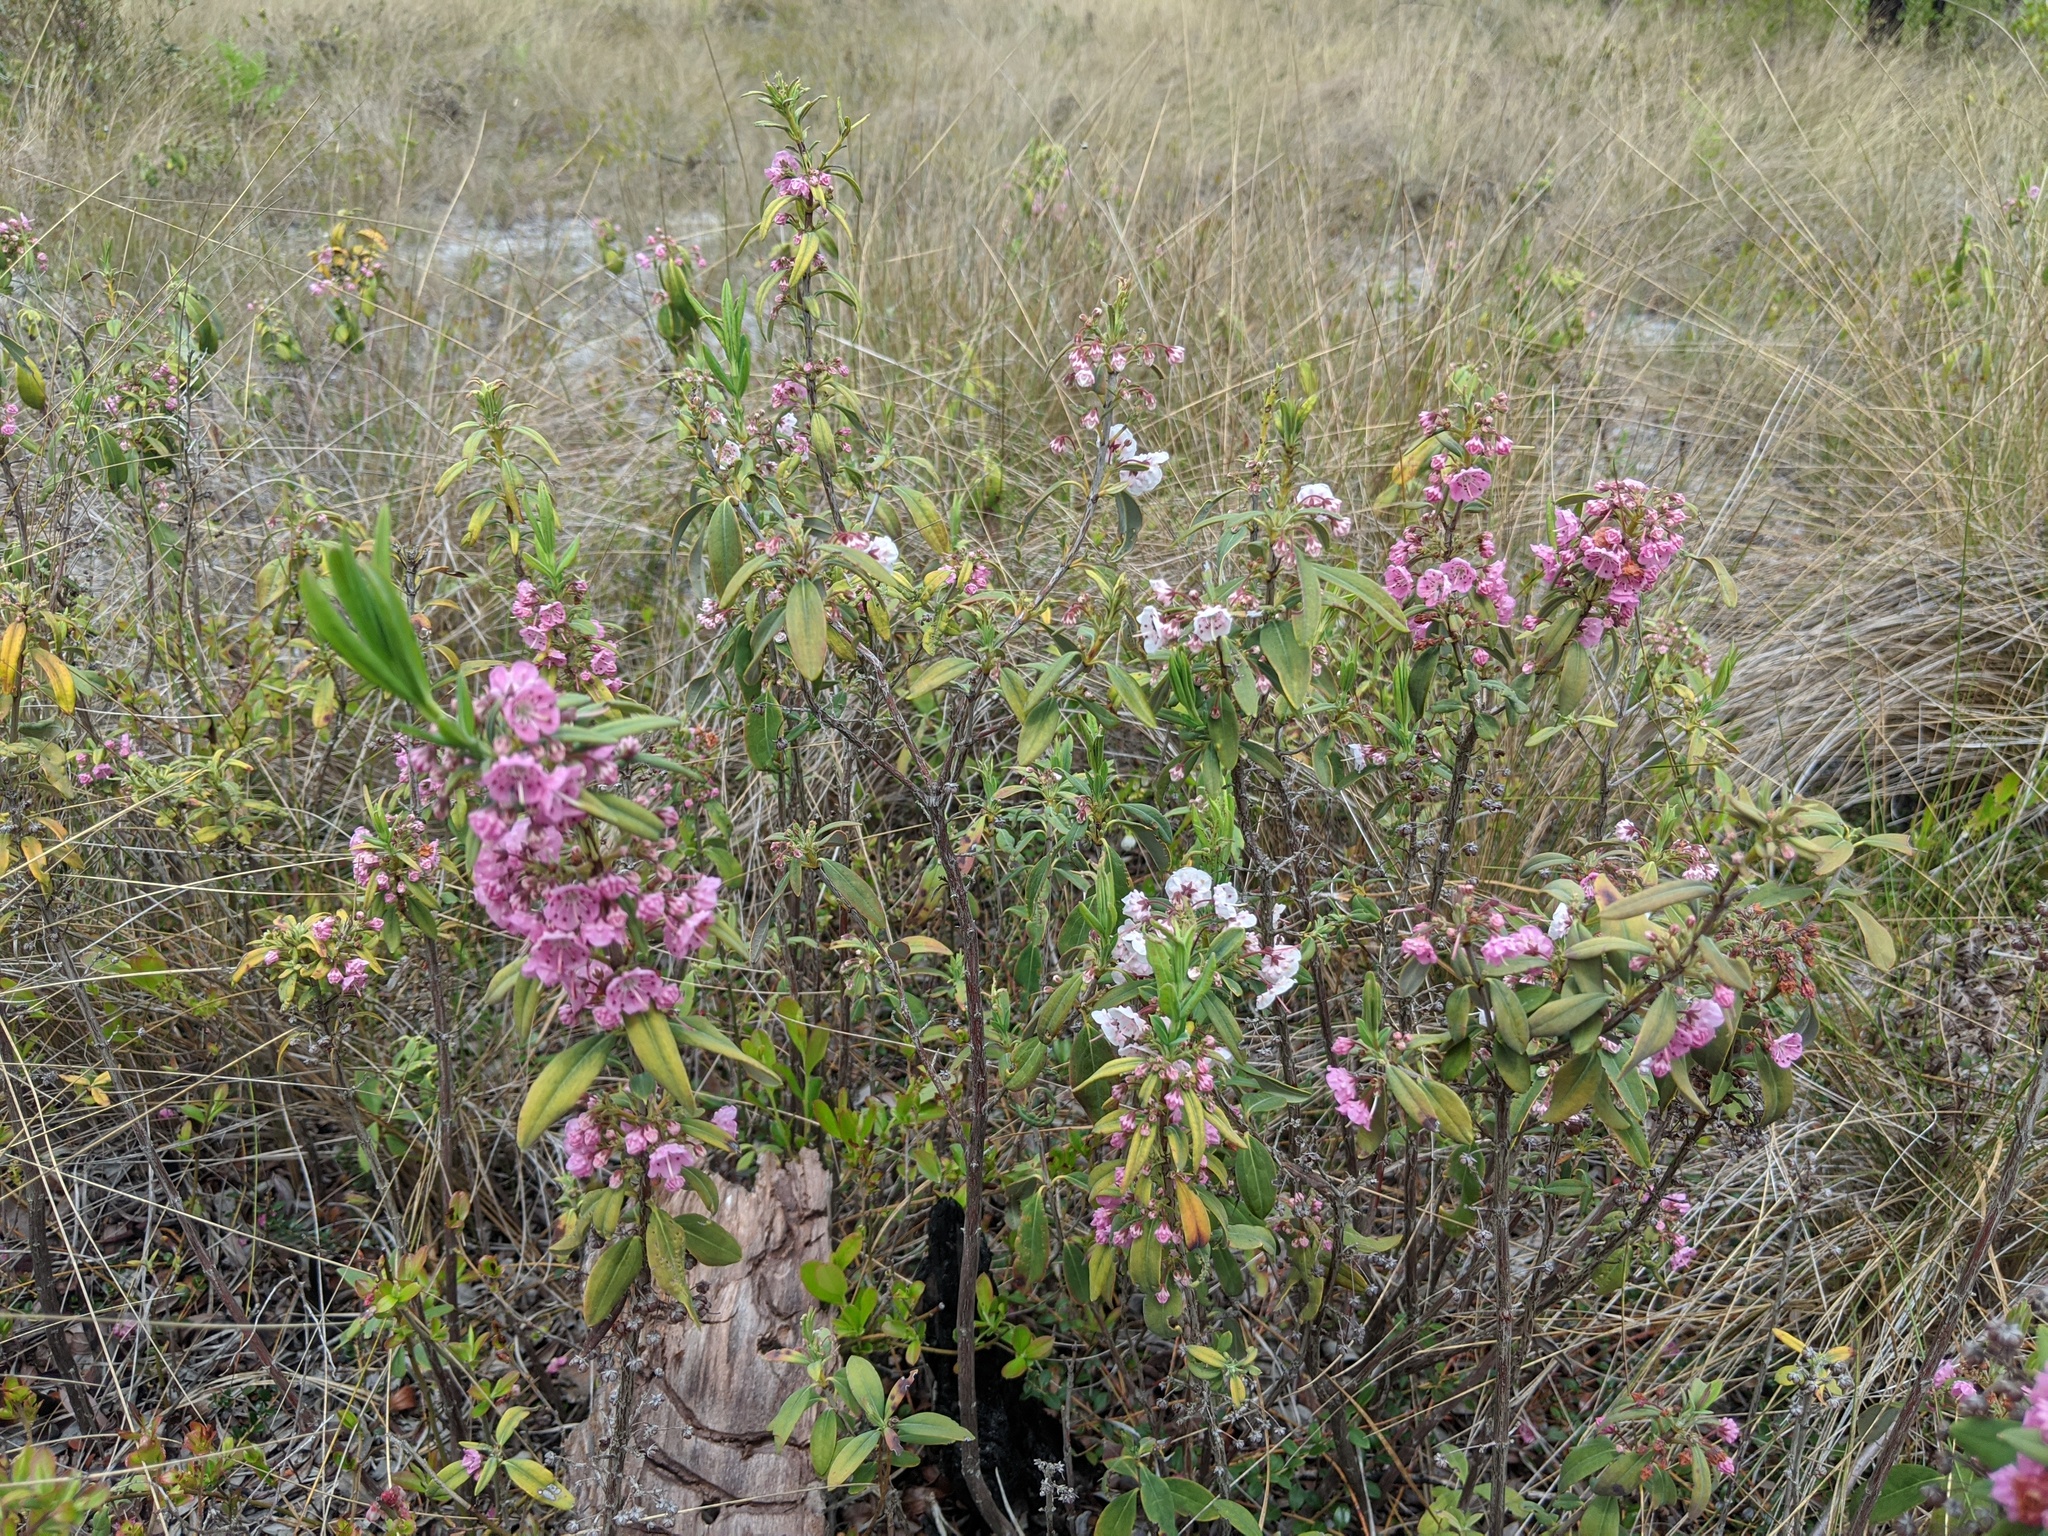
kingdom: Plantae
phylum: Tracheophyta
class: Magnoliopsida
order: Ericales
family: Ericaceae
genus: Kalmia
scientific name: Kalmia angustifolia
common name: Sheep-laurel
